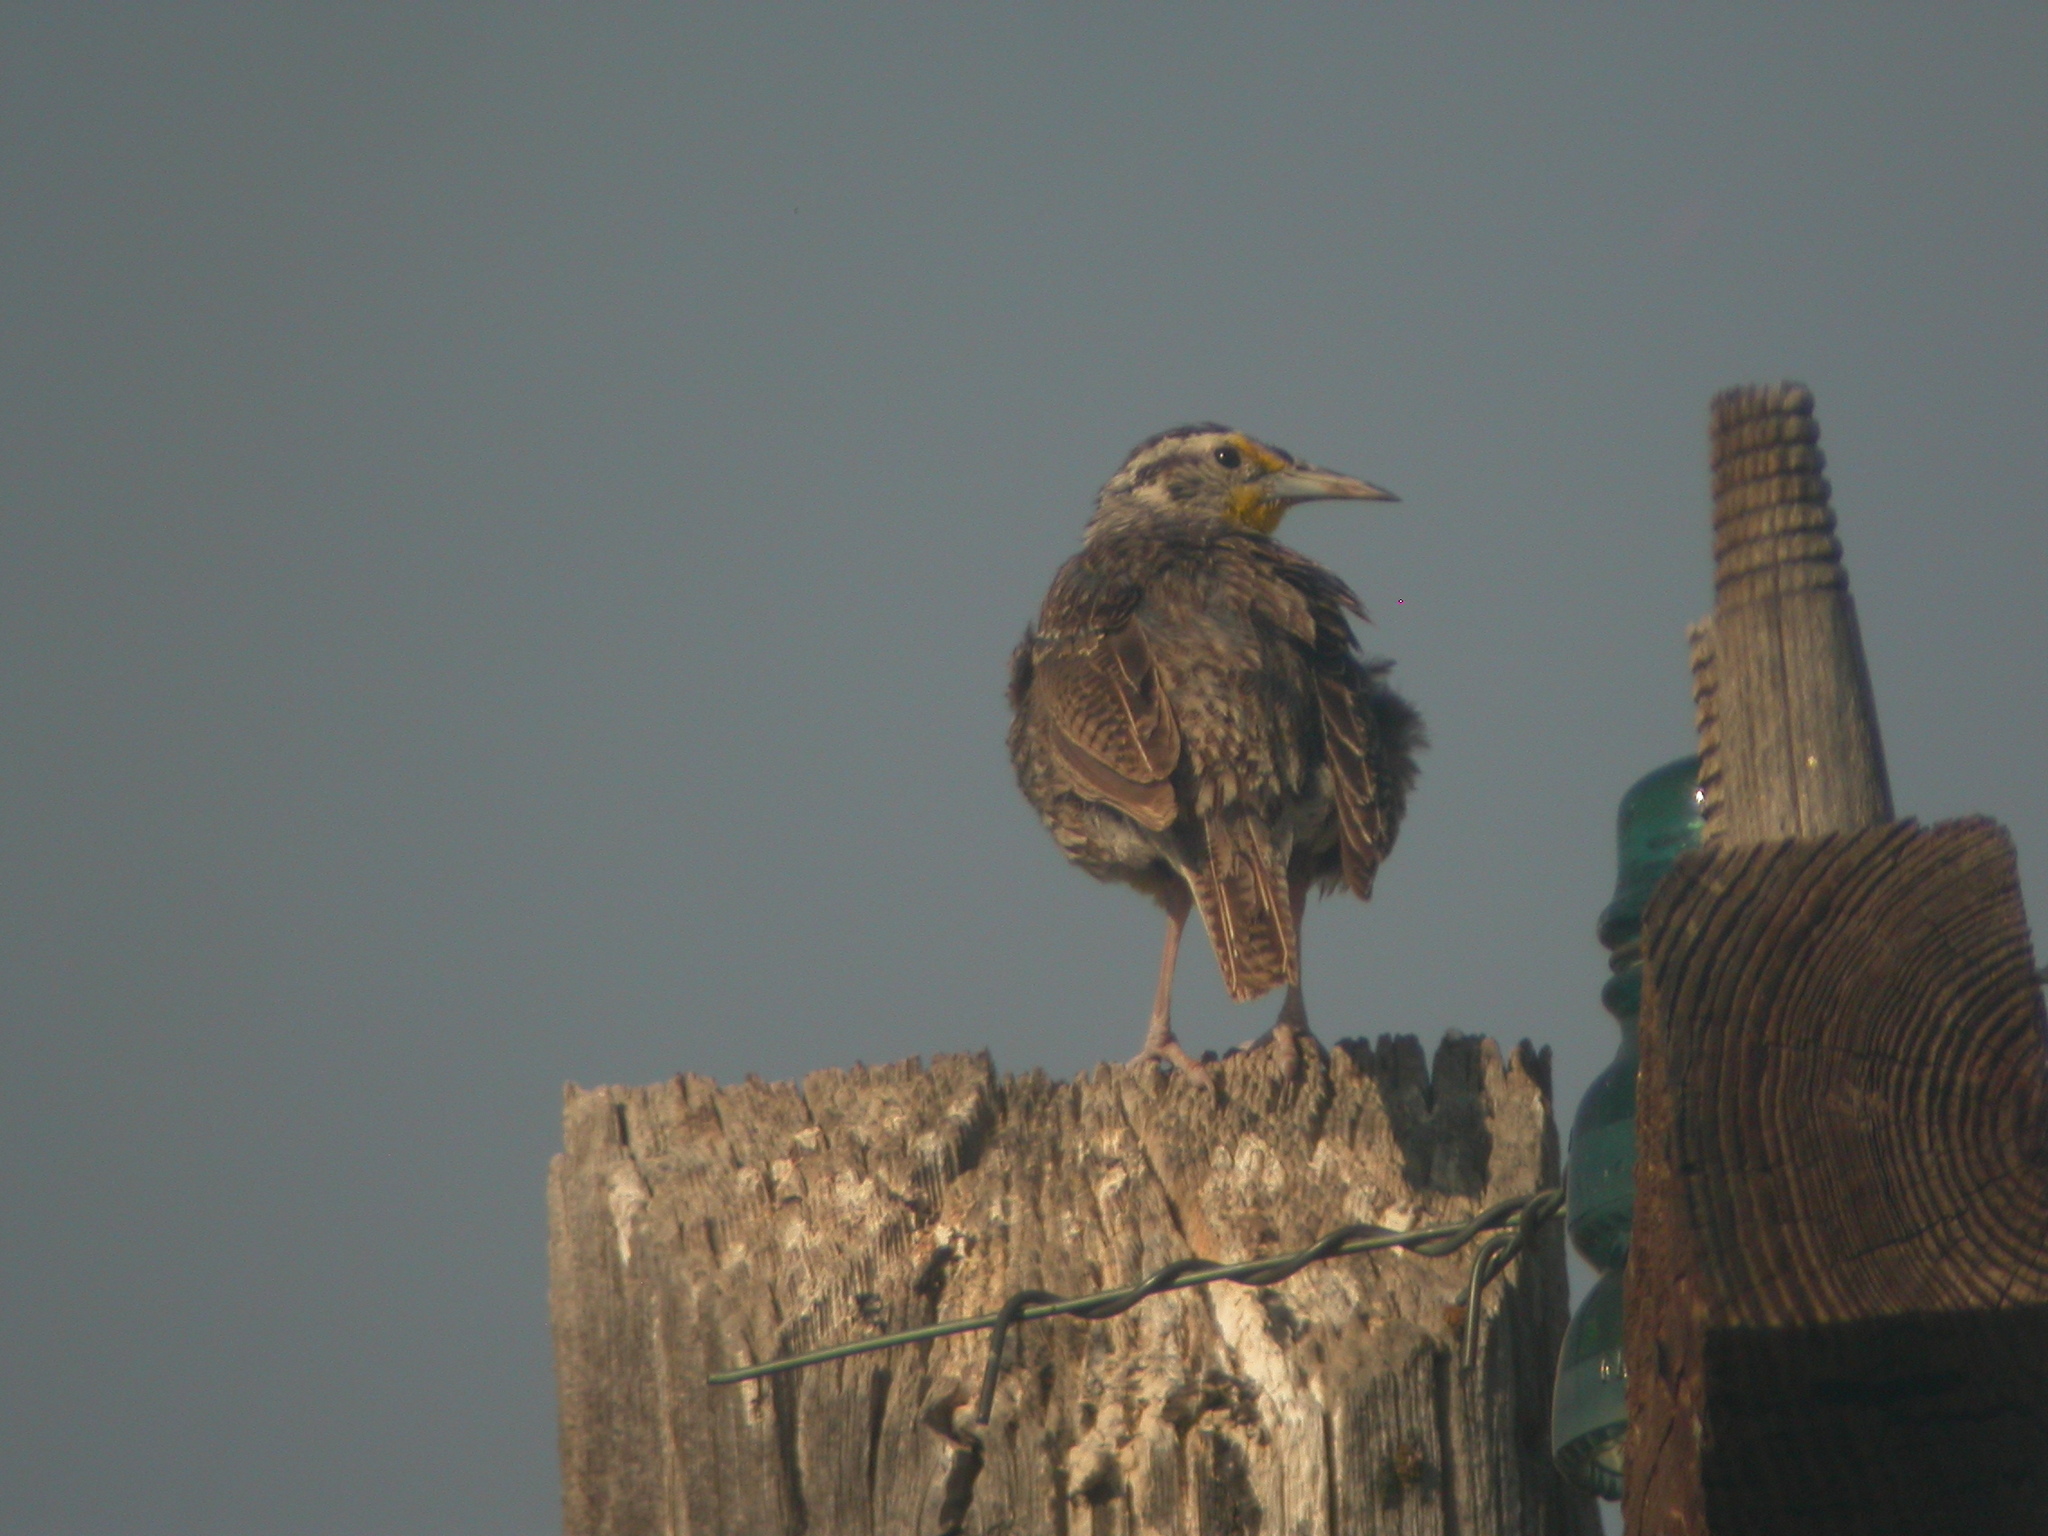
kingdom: Animalia
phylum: Chordata
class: Aves
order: Passeriformes
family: Icteridae
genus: Sturnella
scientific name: Sturnella neglecta
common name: Western meadowlark
